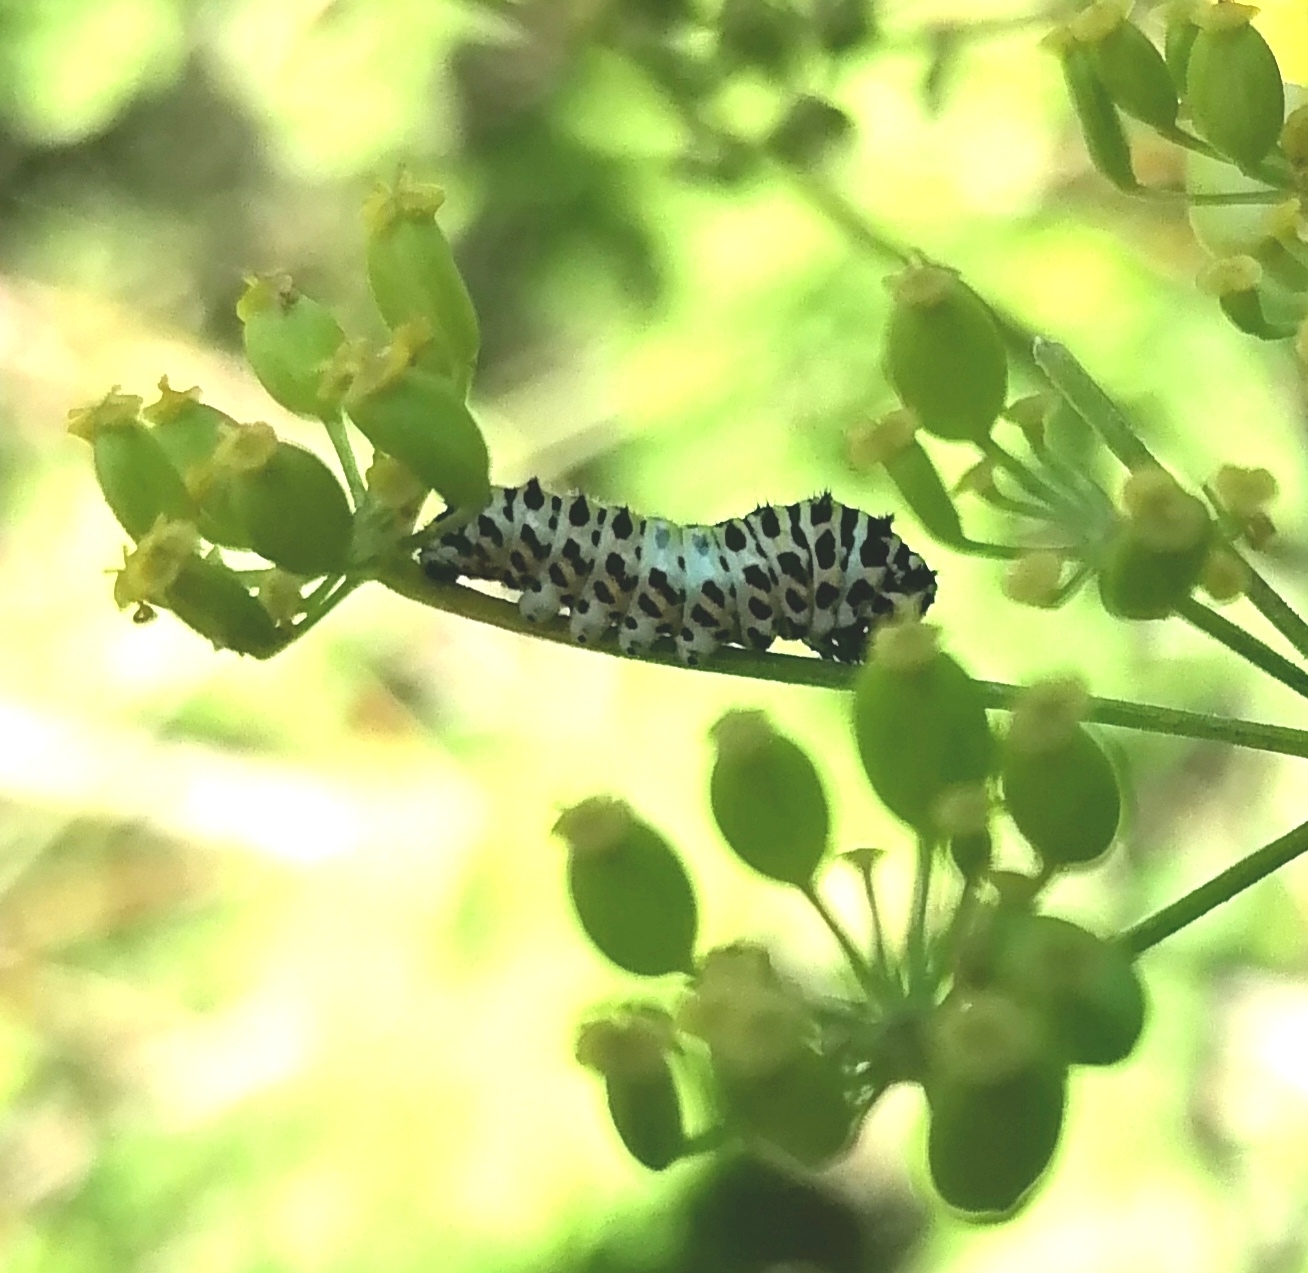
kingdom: Animalia
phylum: Arthropoda
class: Insecta
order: Lepidoptera
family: Papilionidae
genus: Papilio
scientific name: Papilio machaon
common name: Swallowtail
